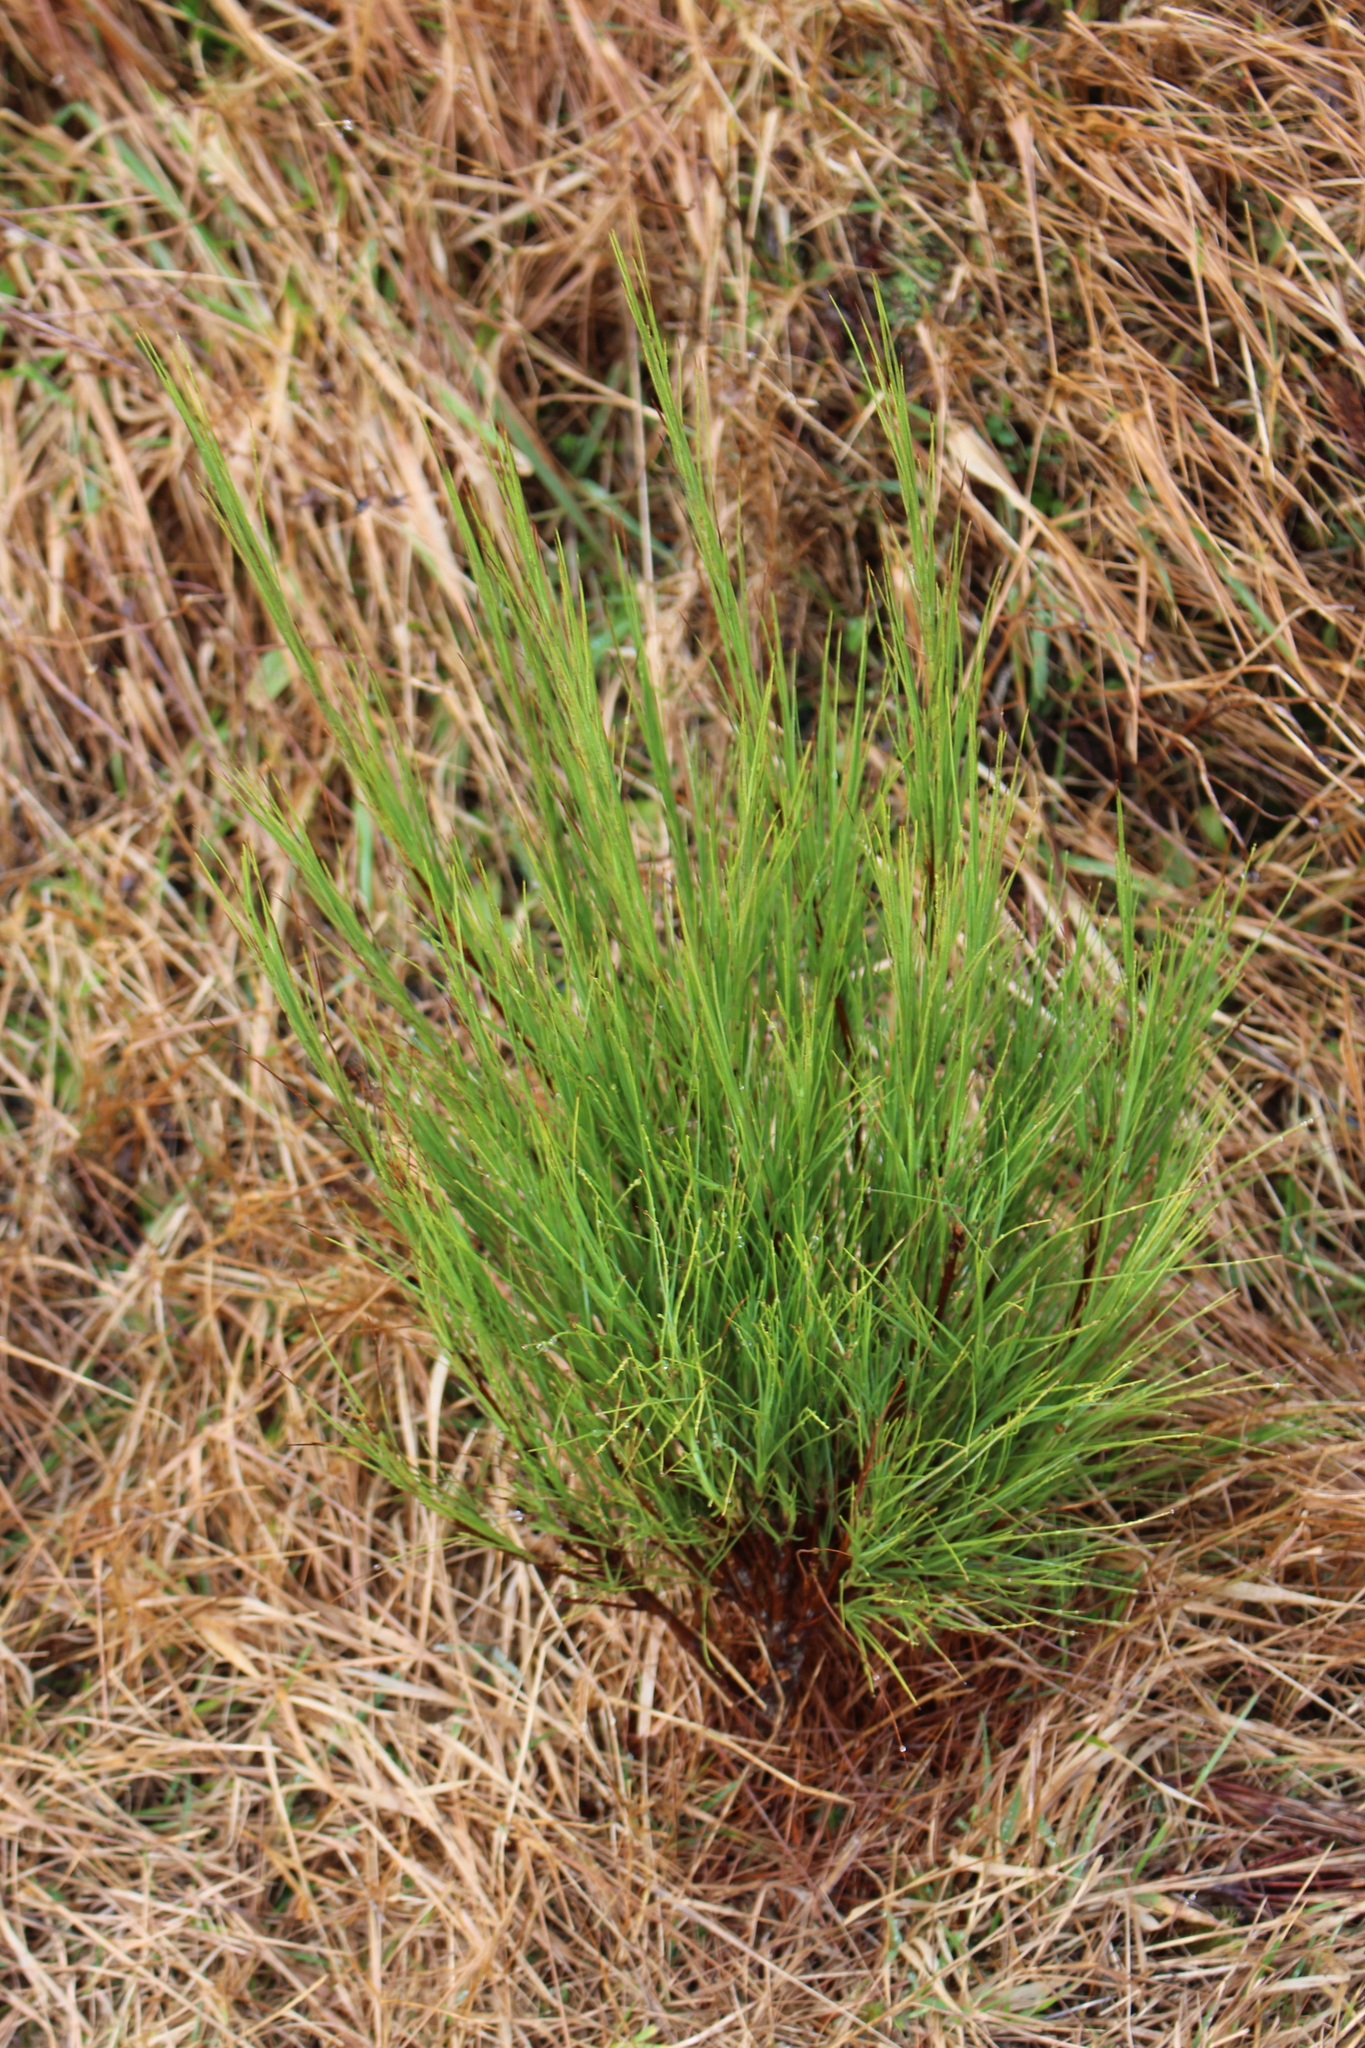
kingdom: Plantae
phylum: Tracheophyta
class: Magnoliopsida
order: Ericales
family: Ericaceae
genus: Dracophyllum
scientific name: Dracophyllum acerosum
